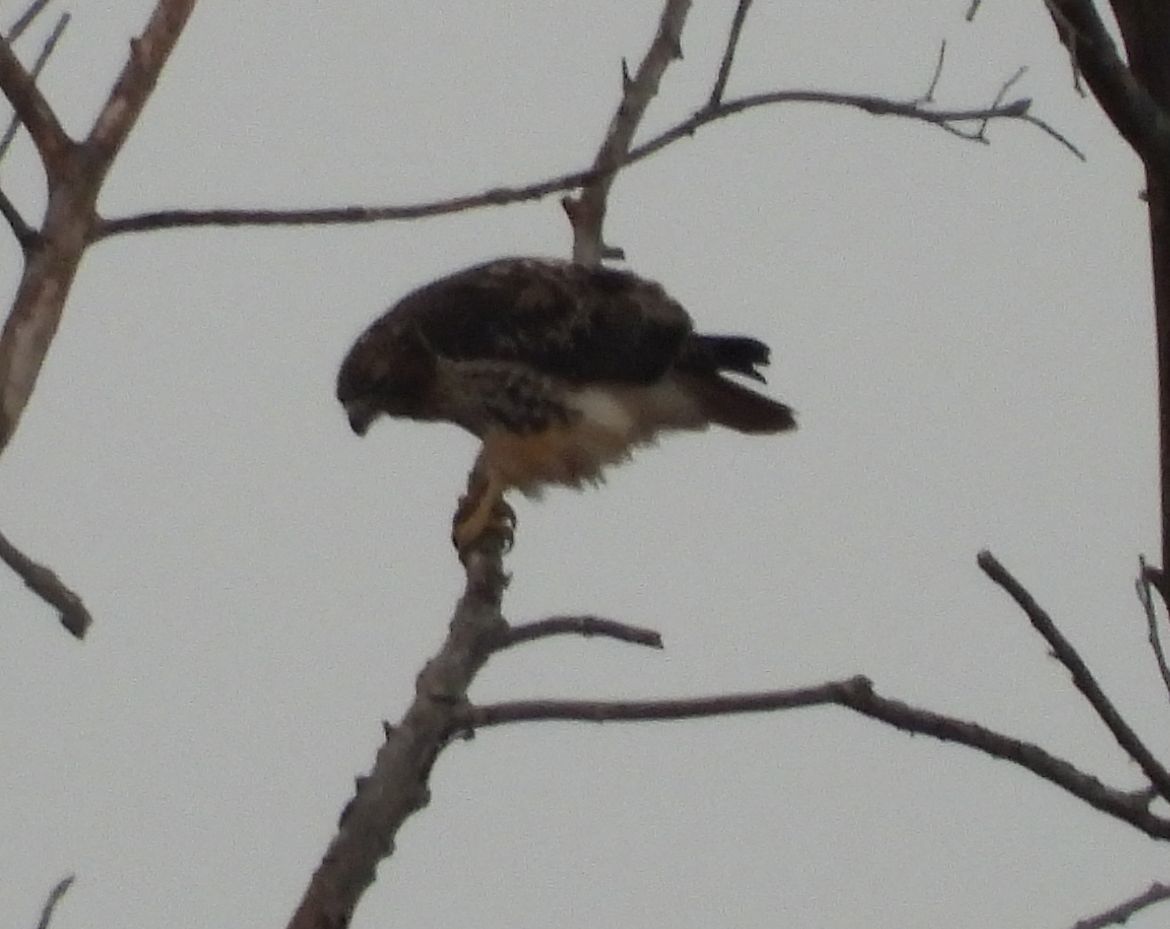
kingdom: Animalia
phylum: Chordata
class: Aves
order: Accipitriformes
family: Accipitridae
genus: Buteo
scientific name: Buteo jamaicensis
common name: Red-tailed hawk
